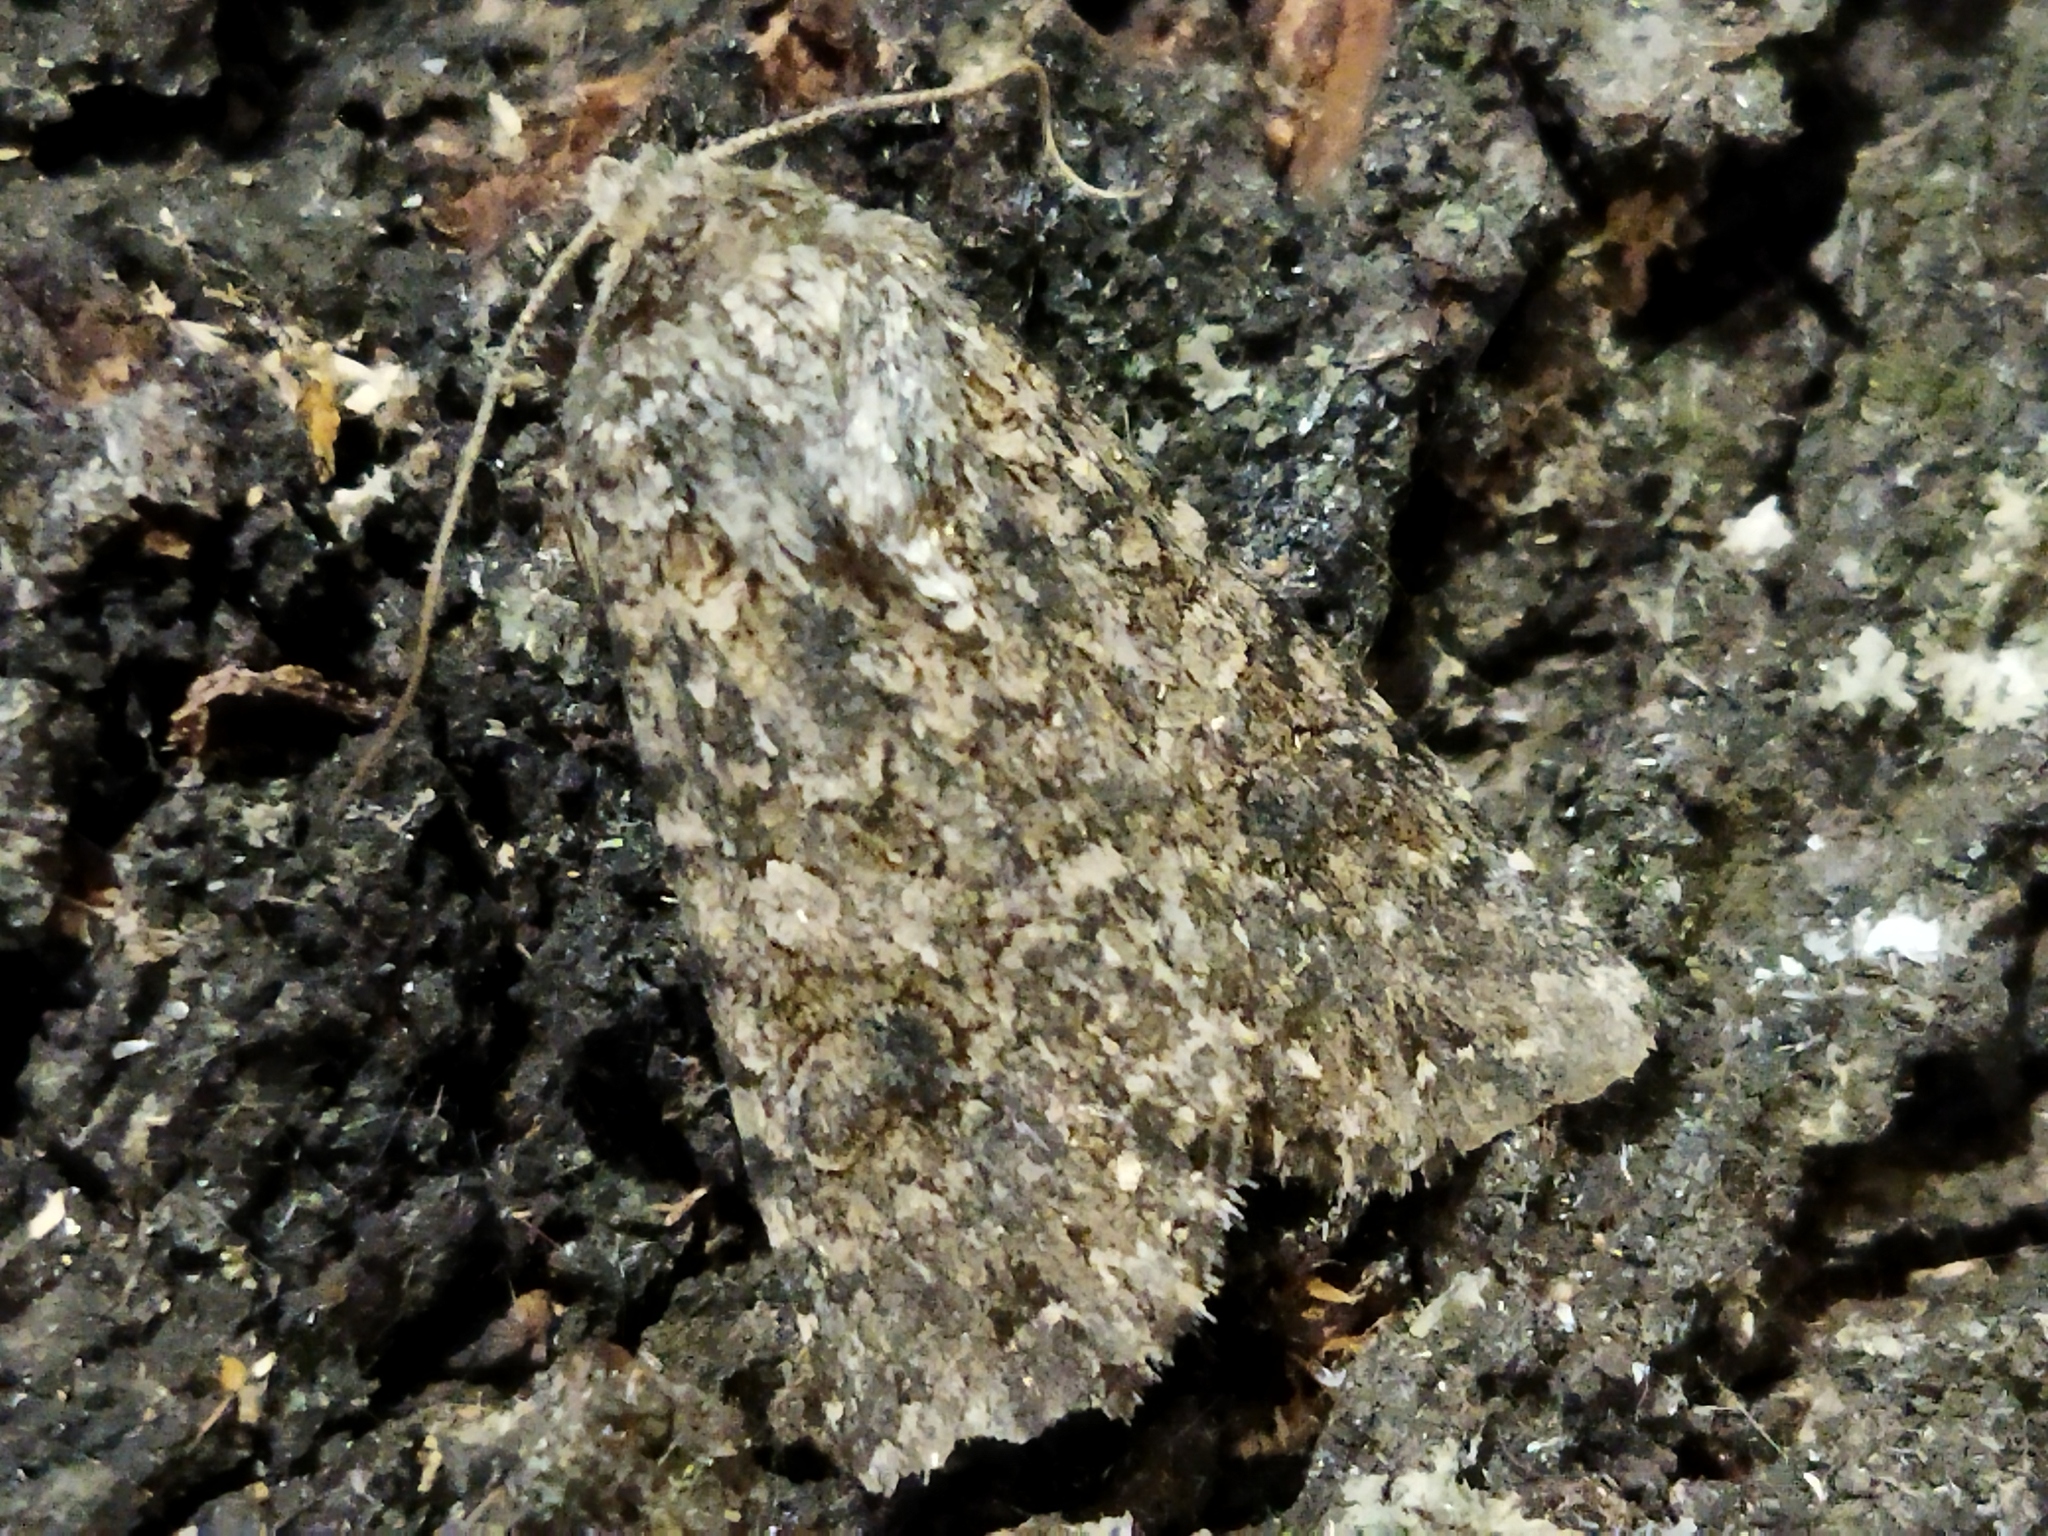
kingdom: Animalia
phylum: Arthropoda
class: Insecta
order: Lepidoptera
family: Noctuidae
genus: Anarta
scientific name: Anarta trifolii
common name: Clover cutworm moth
